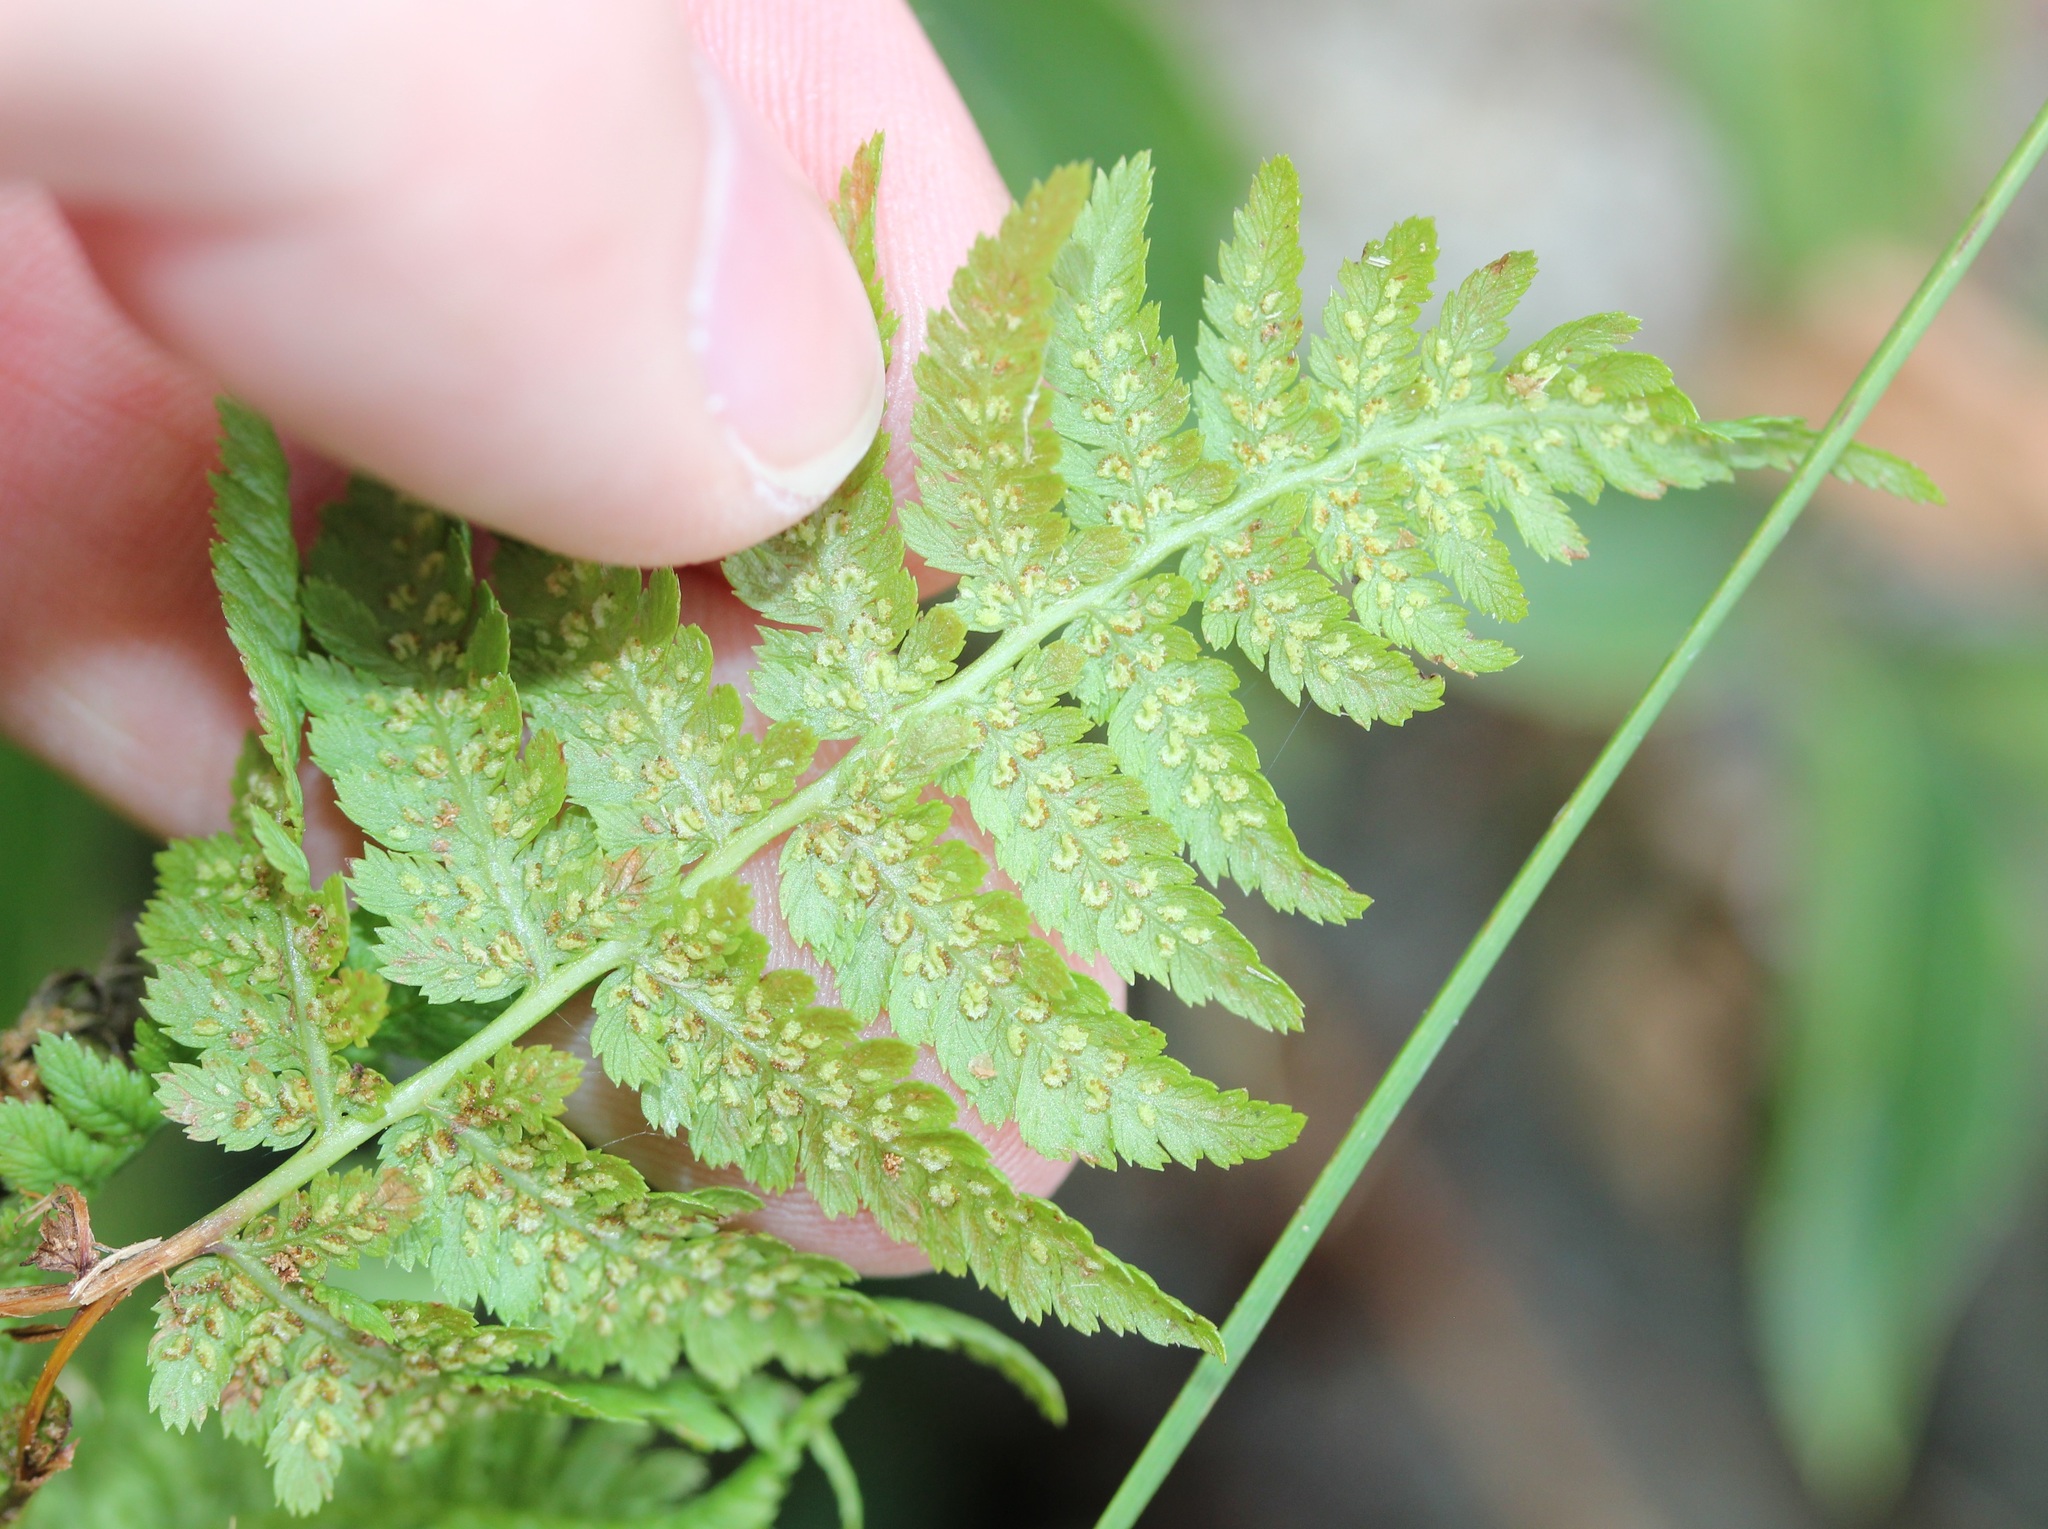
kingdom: Plantae
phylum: Tracheophyta
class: Polypodiopsida
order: Polypodiales
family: Athyriaceae
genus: Athyrium
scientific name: Athyrium angustum
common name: Northern lady fern
